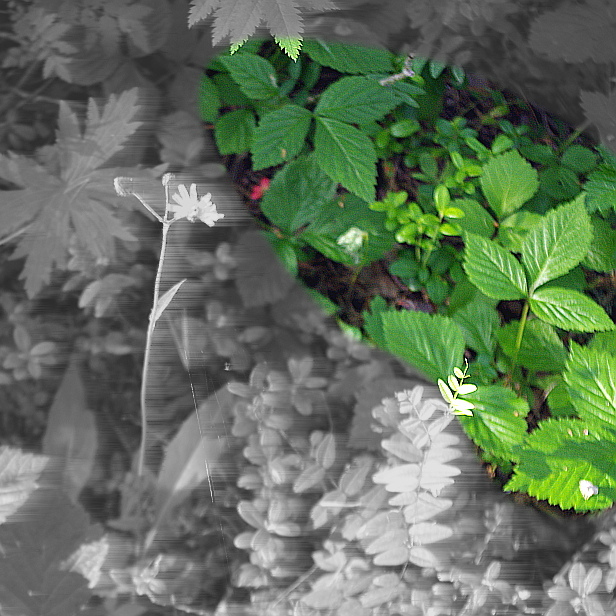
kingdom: Plantae
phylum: Tracheophyta
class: Magnoliopsida
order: Rosales
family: Rosaceae
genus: Rubus
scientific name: Rubus saxatilis
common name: Stone bramble
